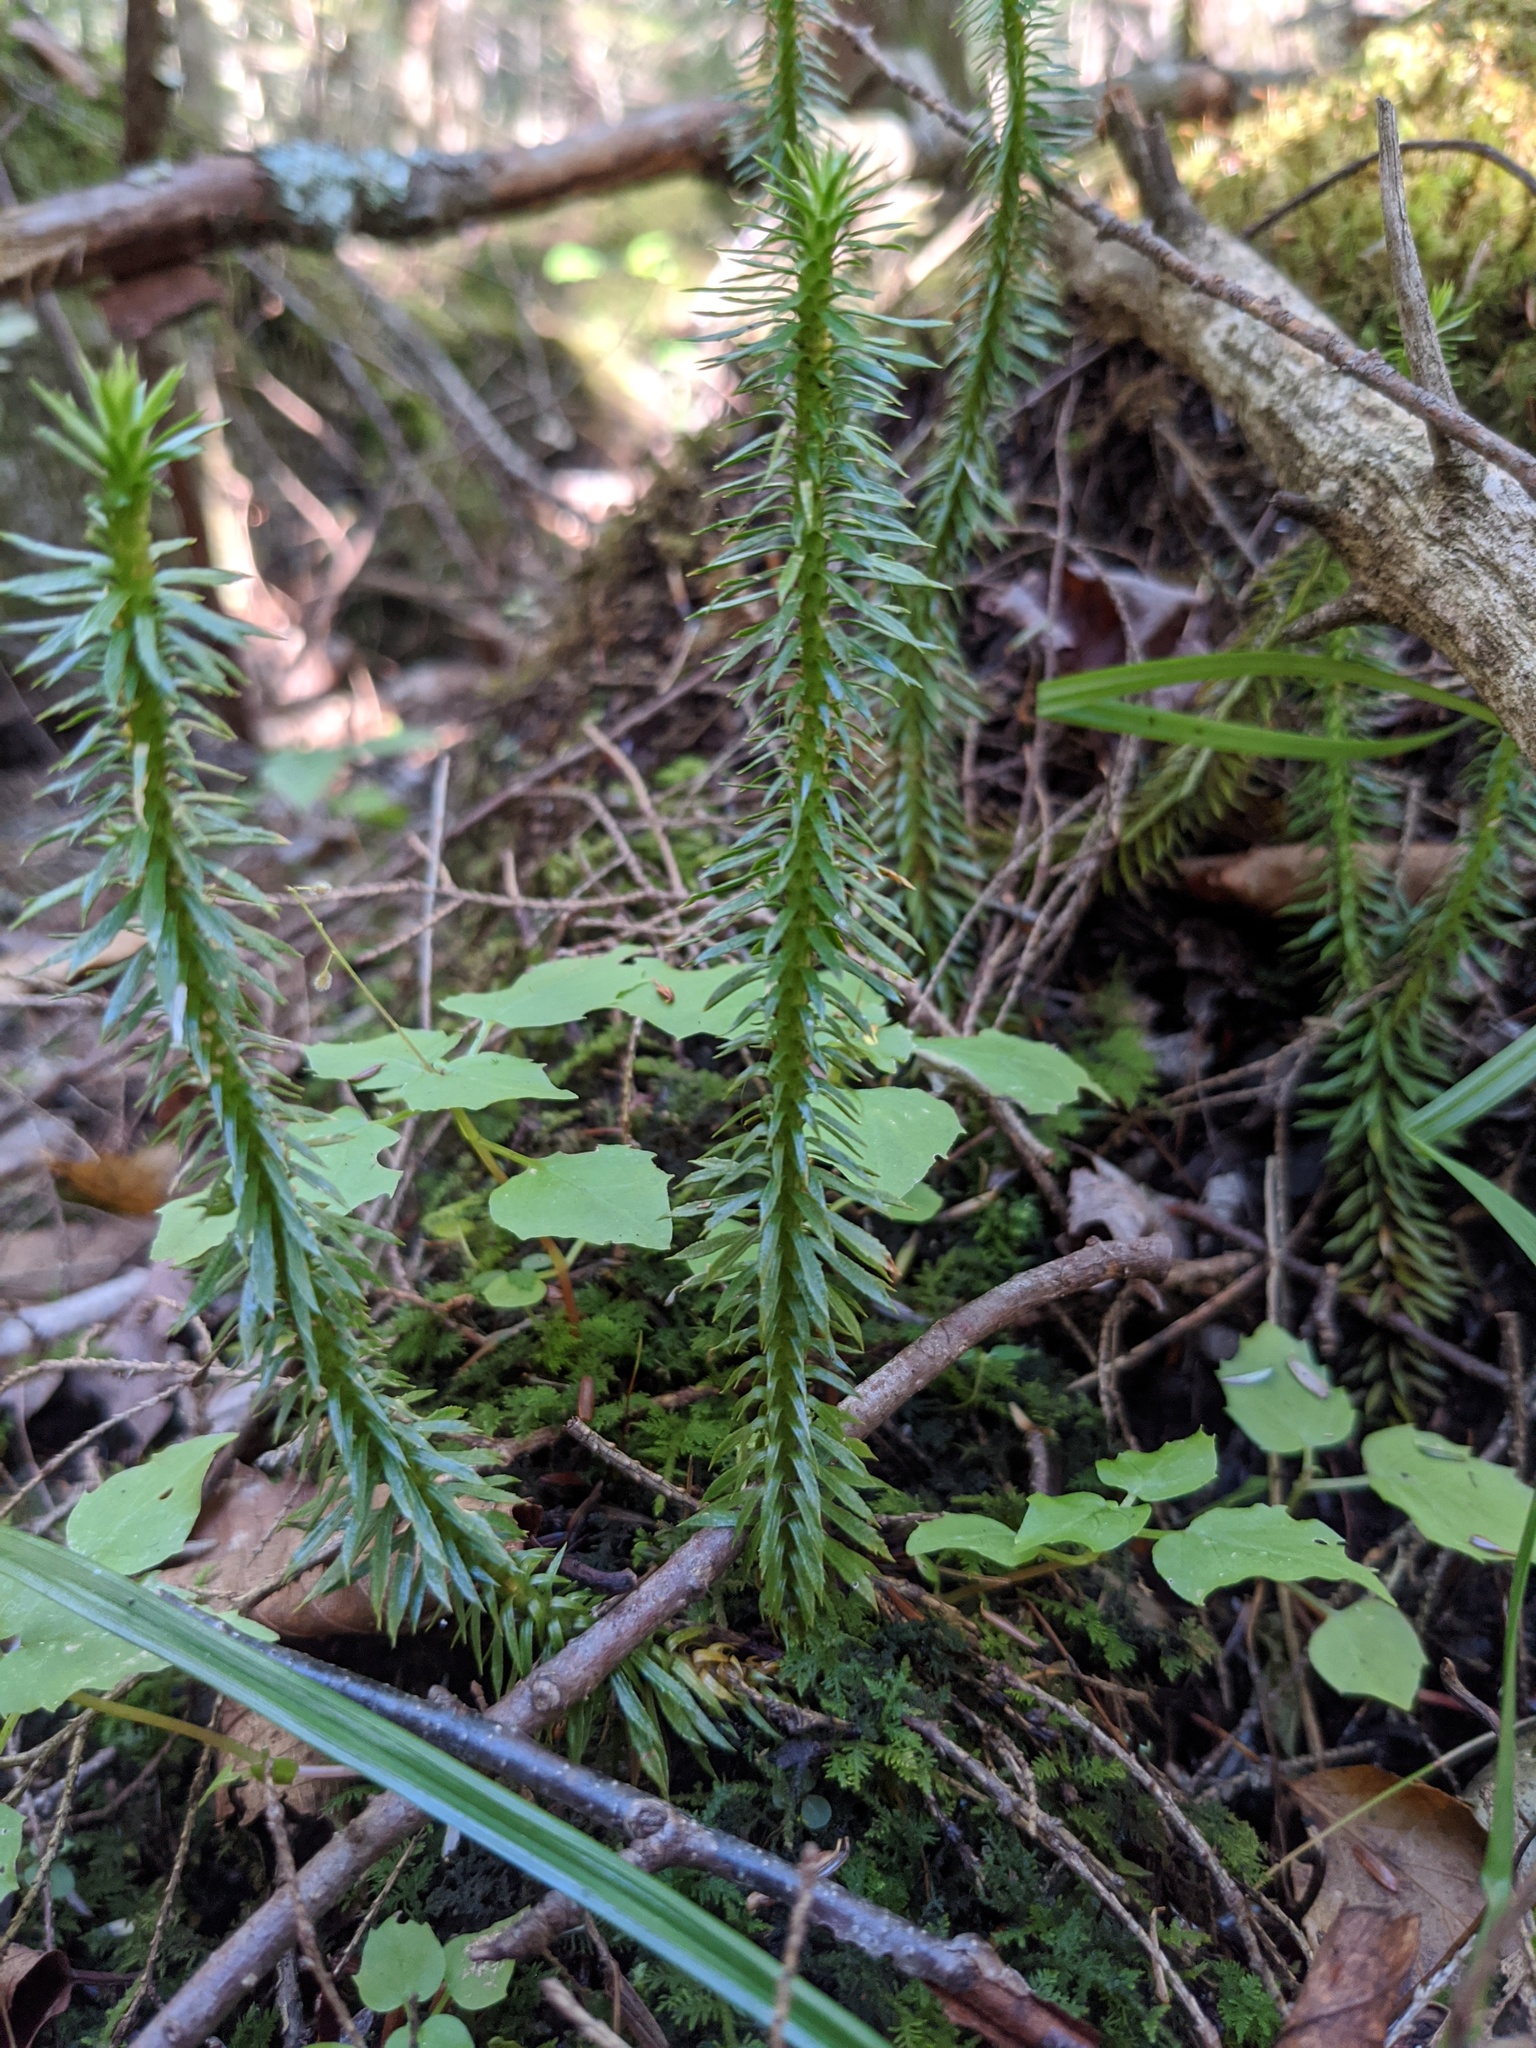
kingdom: Plantae
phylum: Tracheophyta
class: Lycopodiopsida
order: Lycopodiales
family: Lycopodiaceae
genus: Huperzia
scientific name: Huperzia lucidula
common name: Shining clubmoss
